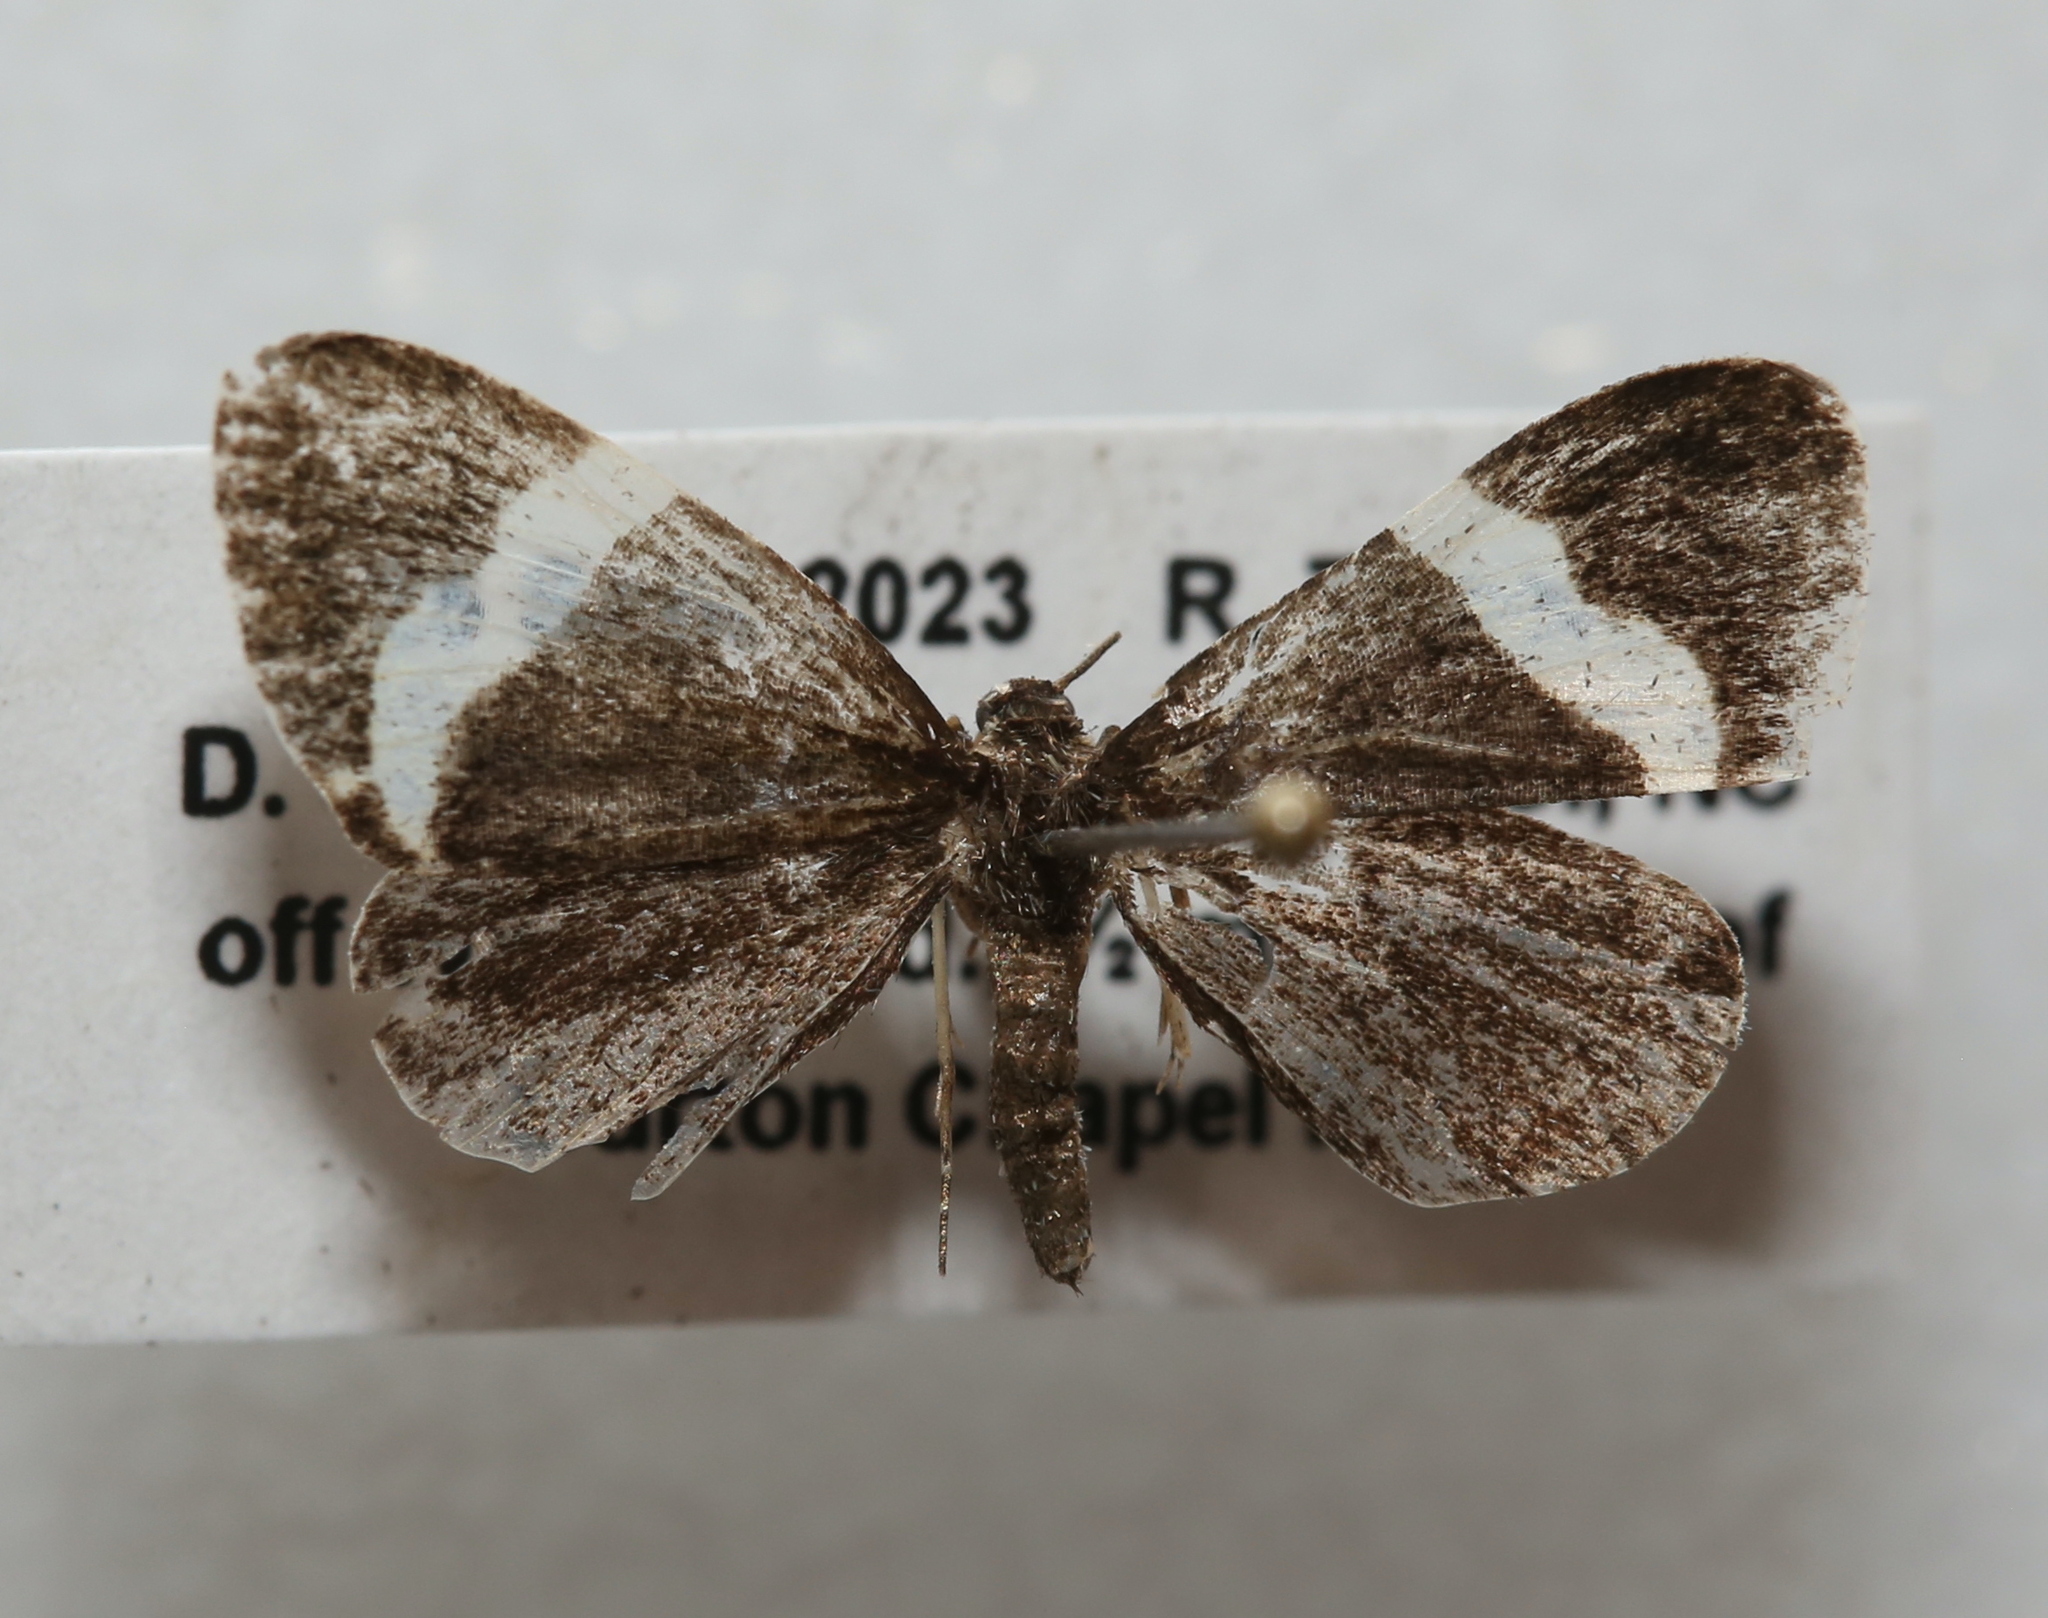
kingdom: Animalia
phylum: Arthropoda
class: Insecta
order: Lepidoptera
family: Geometridae
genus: Trichodezia
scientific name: Trichodezia albovittata
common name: White striped black
